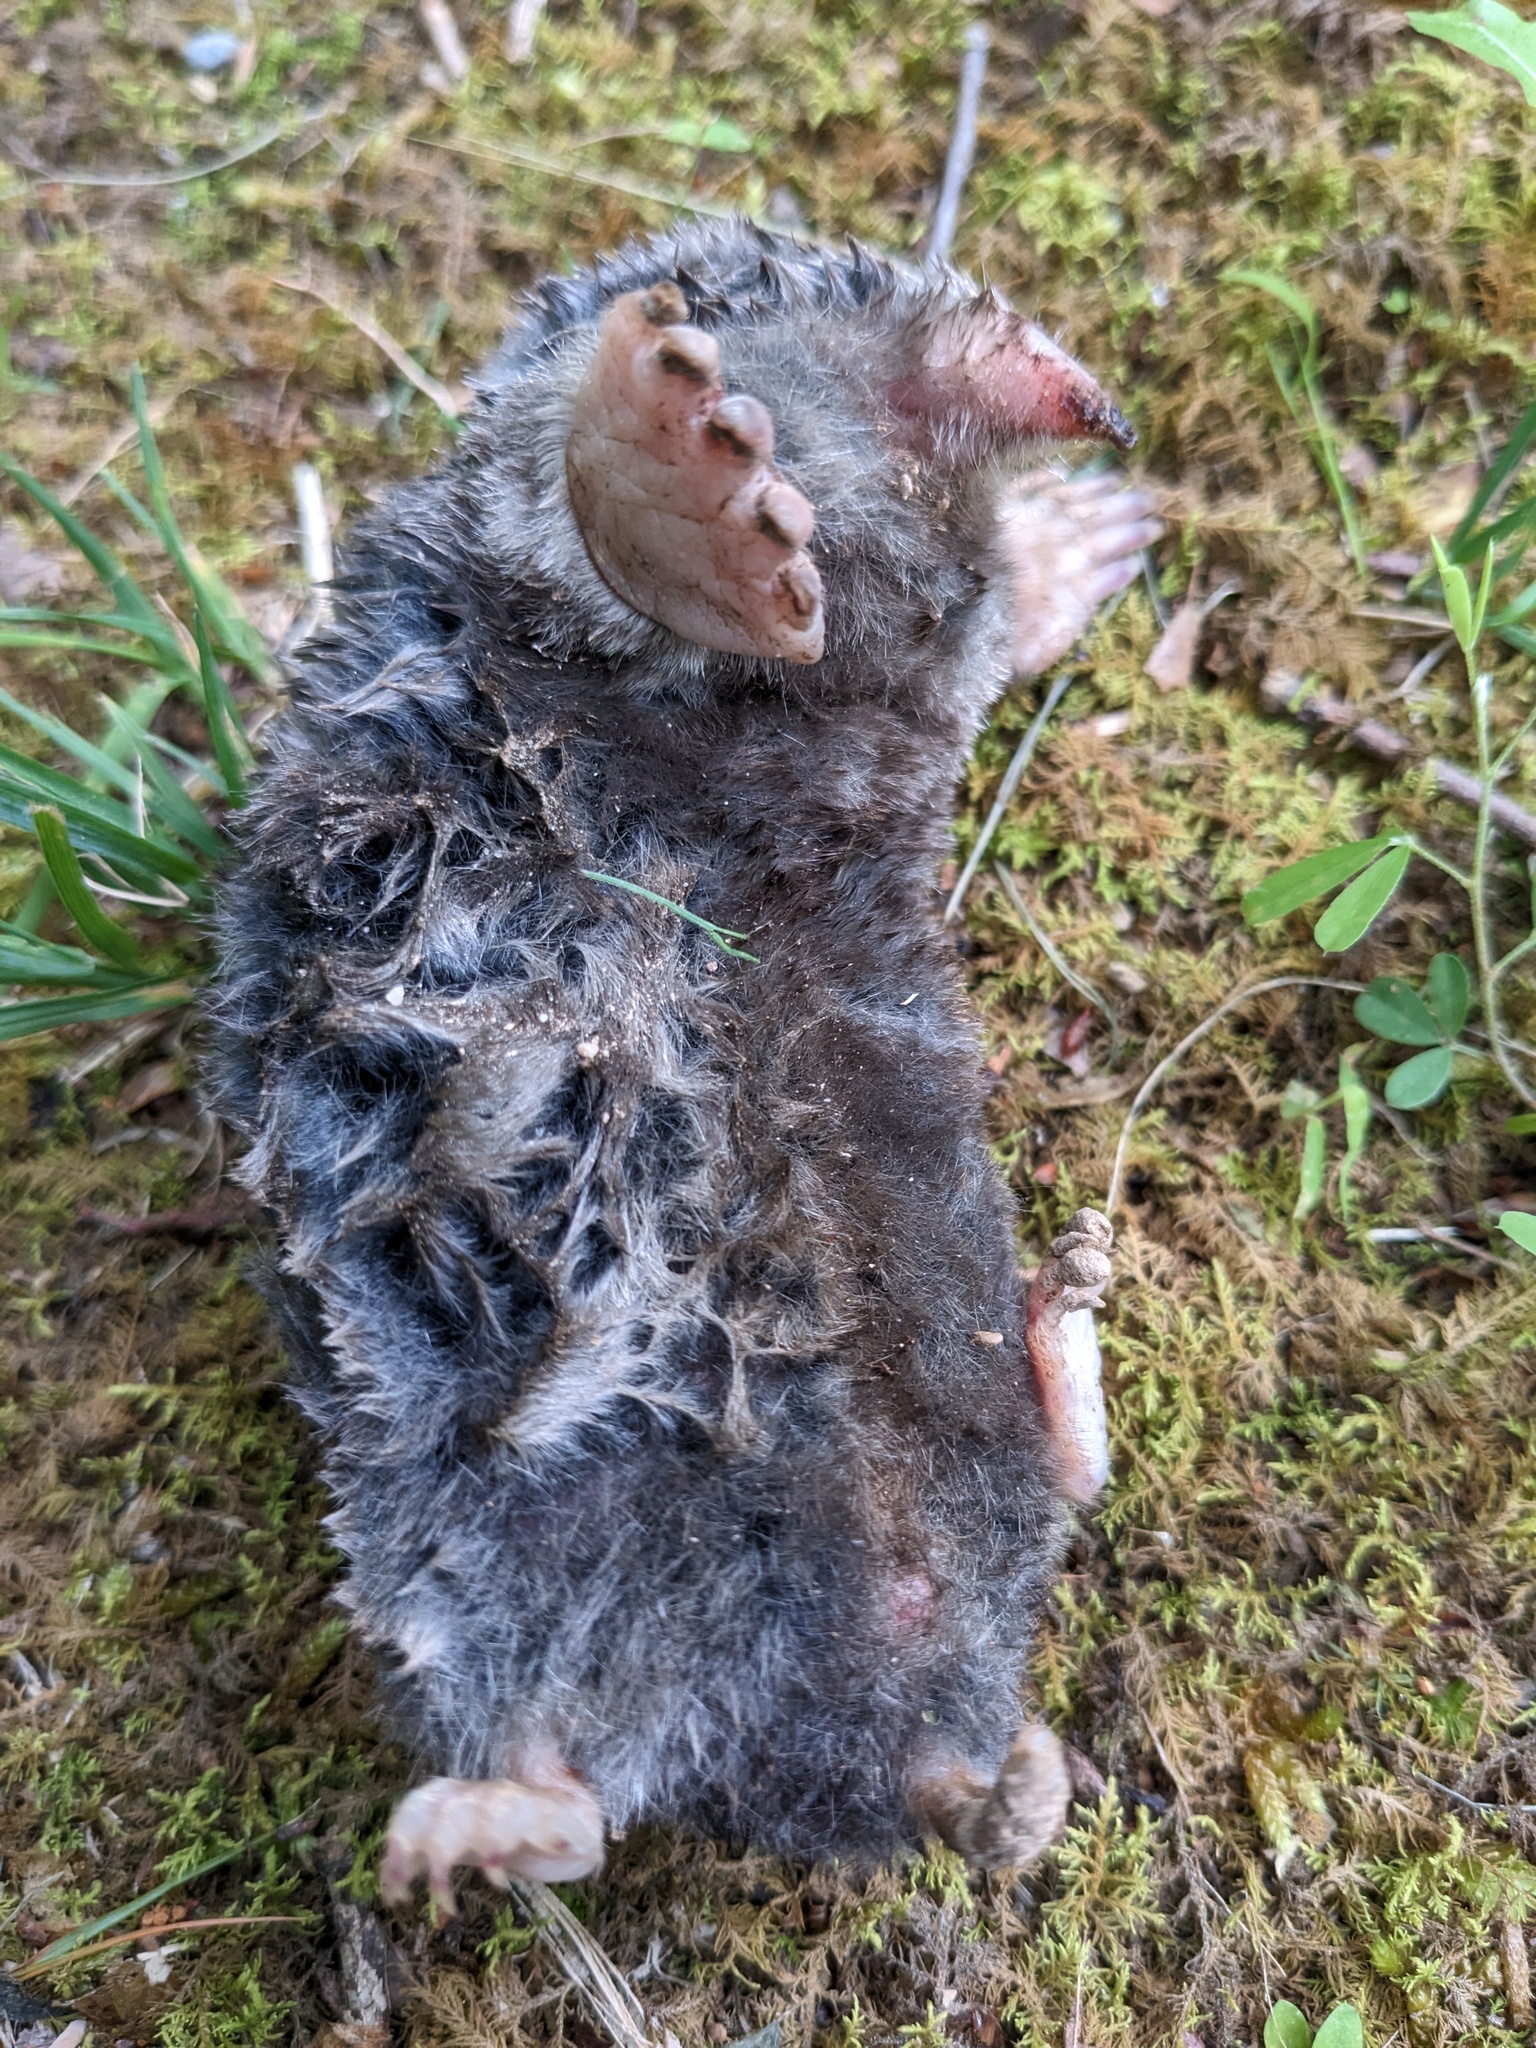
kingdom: Animalia
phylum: Chordata
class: Mammalia
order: Soricomorpha
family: Talpidae
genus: Scalopus
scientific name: Scalopus aquaticus
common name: Eastern mole
